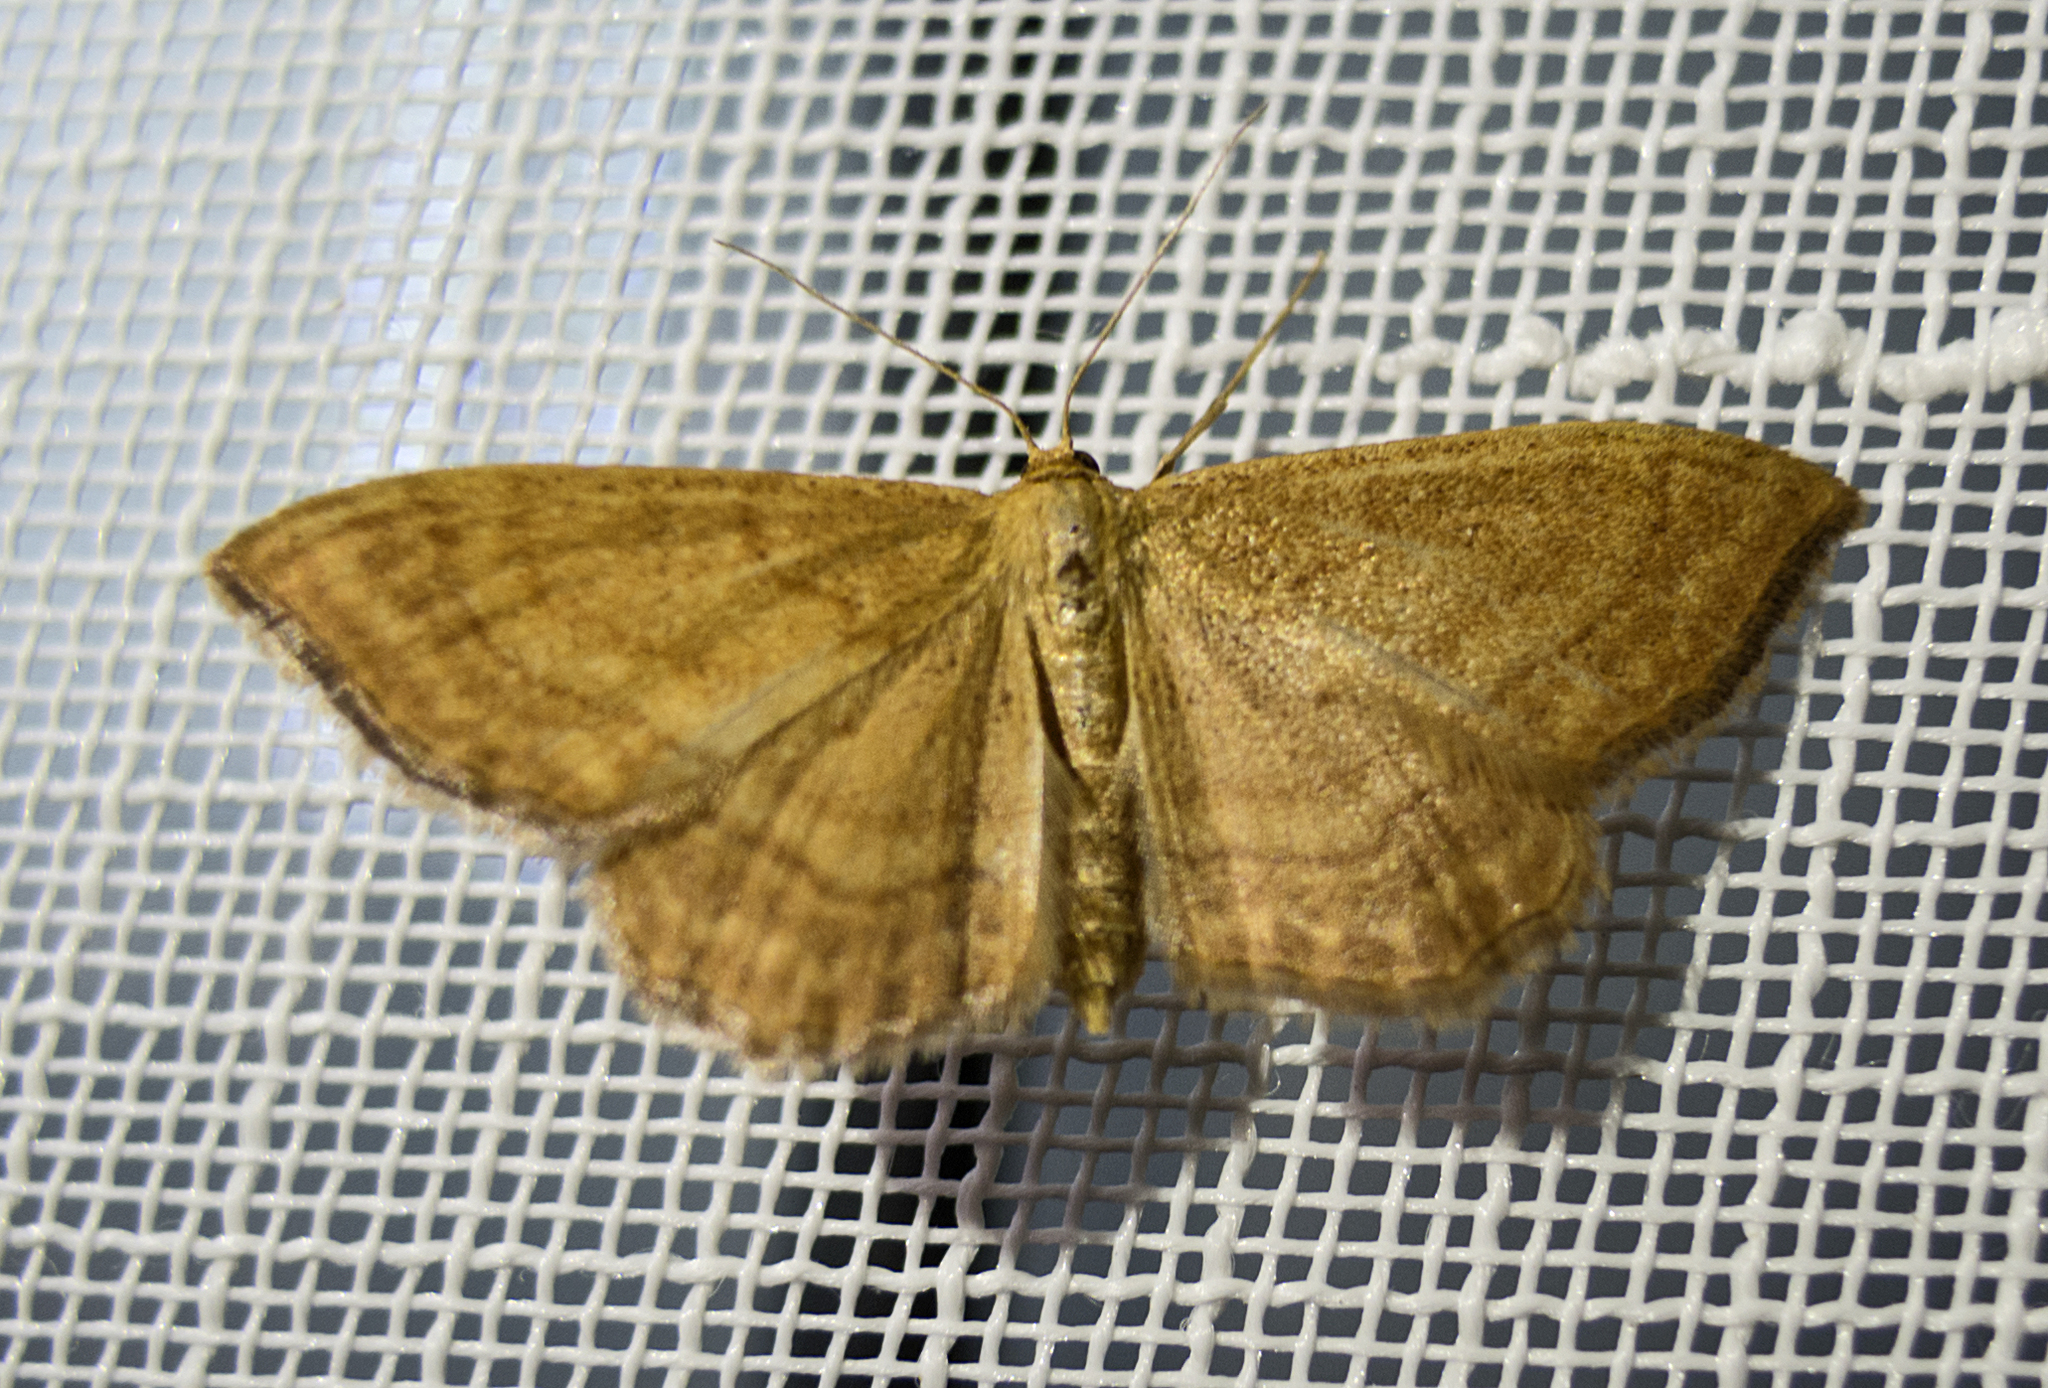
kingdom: Animalia
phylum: Arthropoda
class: Insecta
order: Lepidoptera
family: Geometridae
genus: Idaea
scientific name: Idaea ochrata
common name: Bright wave
